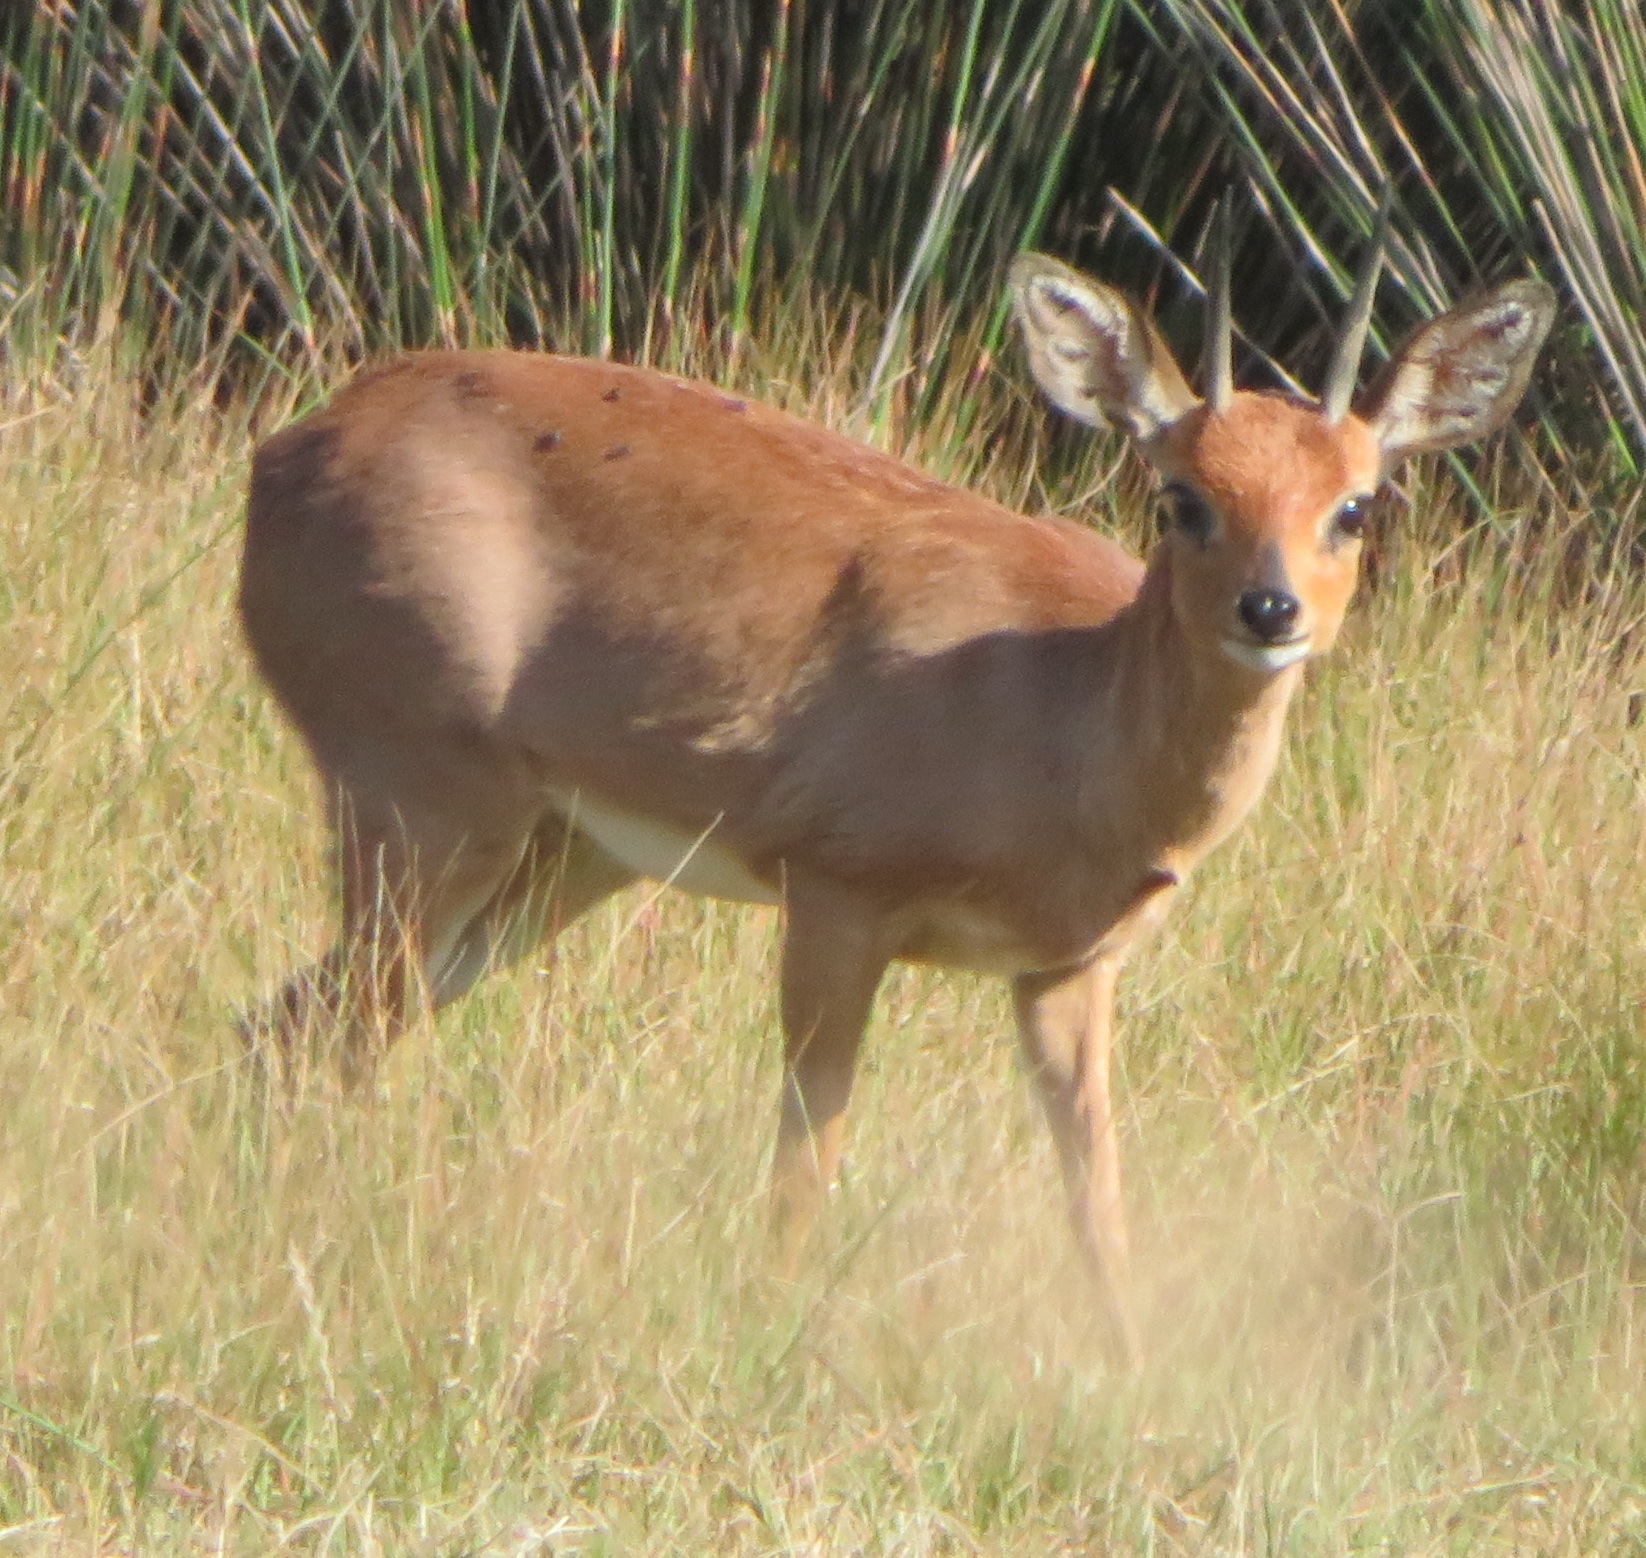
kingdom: Animalia
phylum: Chordata
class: Mammalia
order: Artiodactyla
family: Bovidae
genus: Raphicerus
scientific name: Raphicerus campestris
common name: Steenbok
